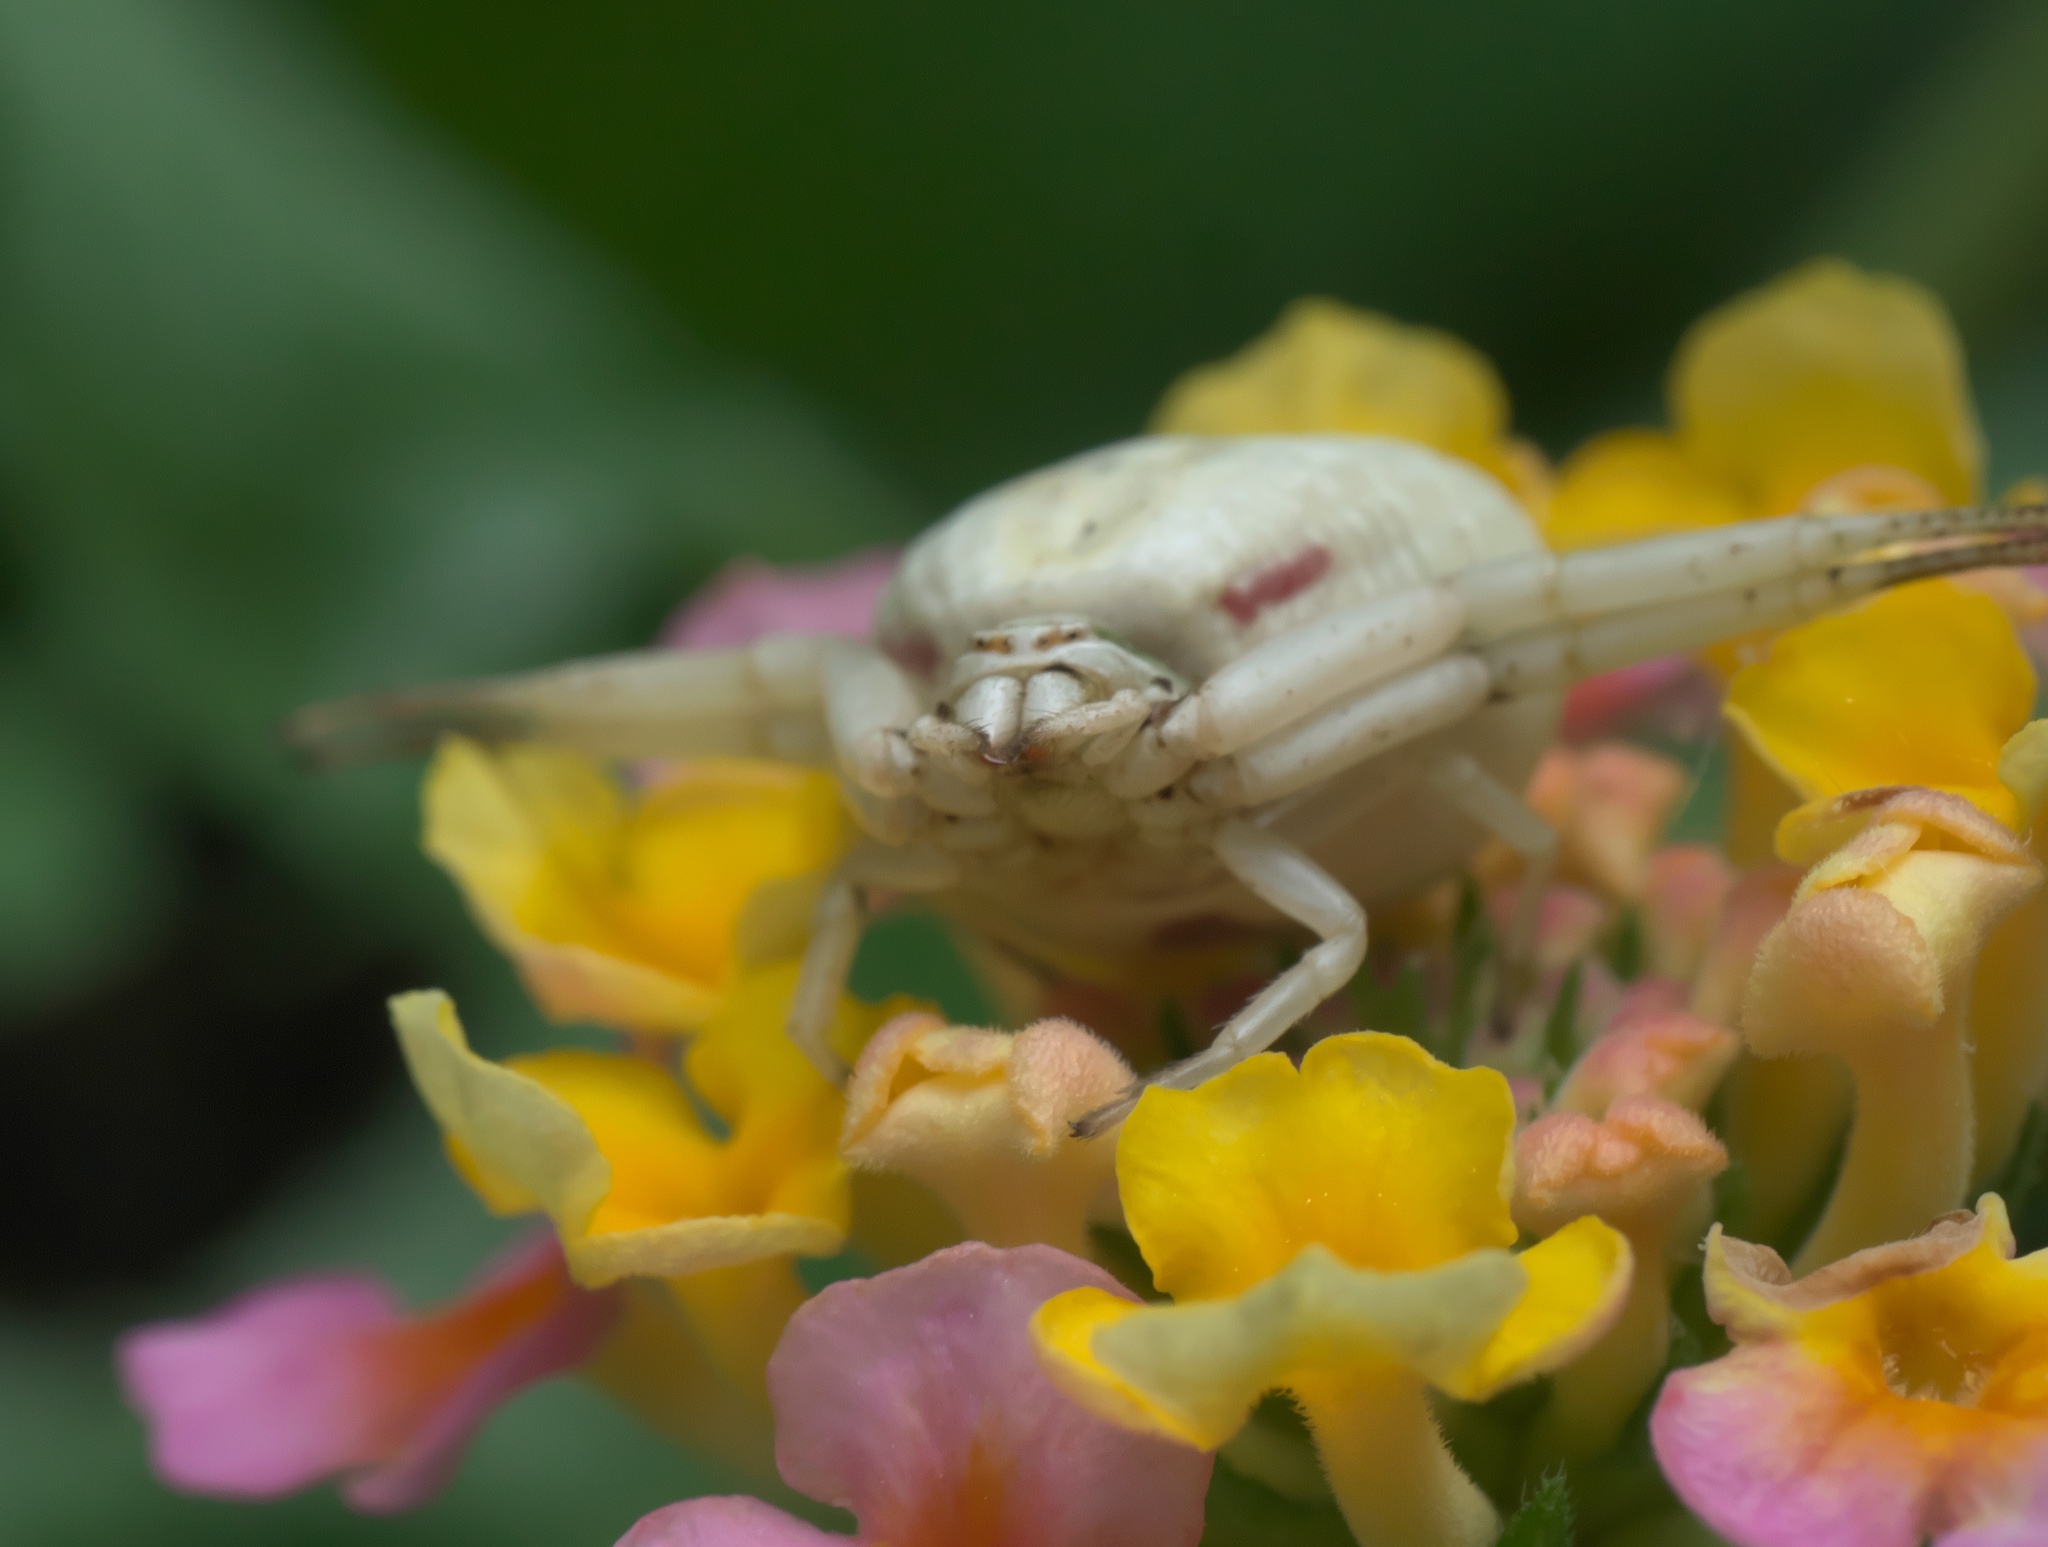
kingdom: Animalia
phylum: Arthropoda
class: Arachnida
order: Araneae
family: Thomisidae
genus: Misumenoides
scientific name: Misumenoides formosipes
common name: White-banded crab spider
